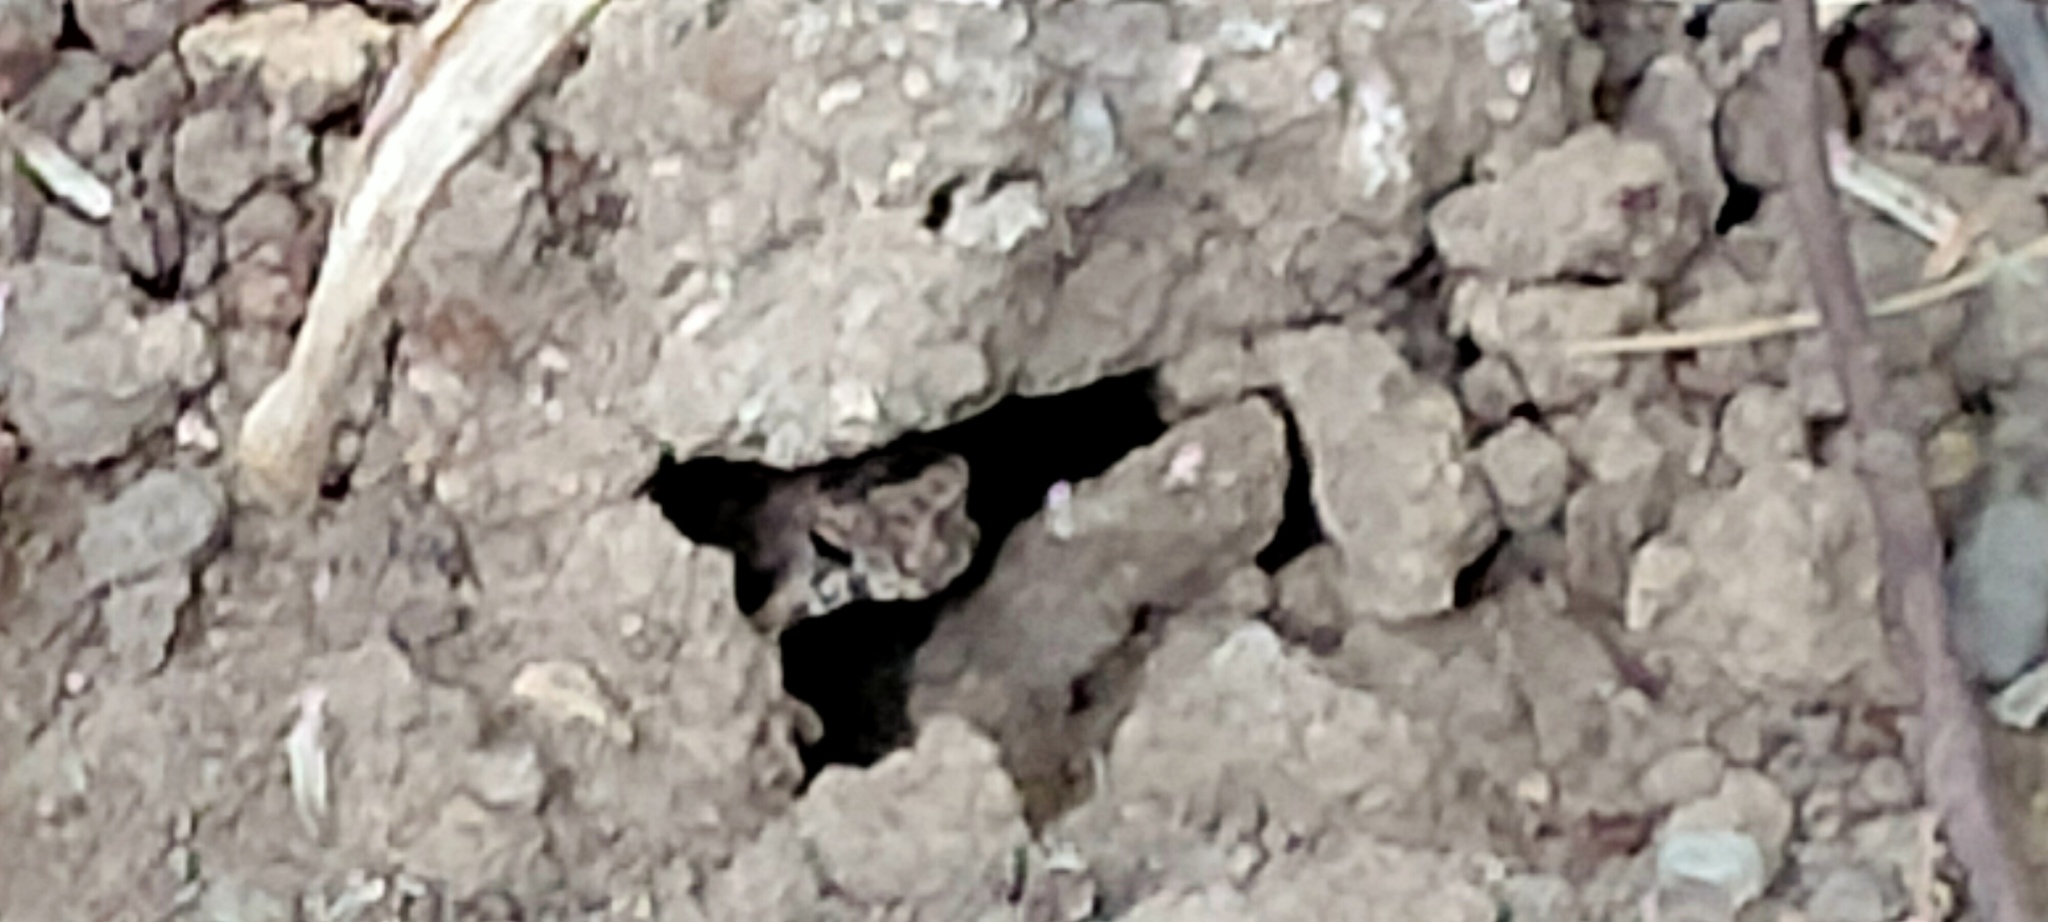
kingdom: Animalia
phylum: Chordata
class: Amphibia
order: Anura
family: Bufonidae
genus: Rhinella
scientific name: Rhinella marina
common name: Cane toad
